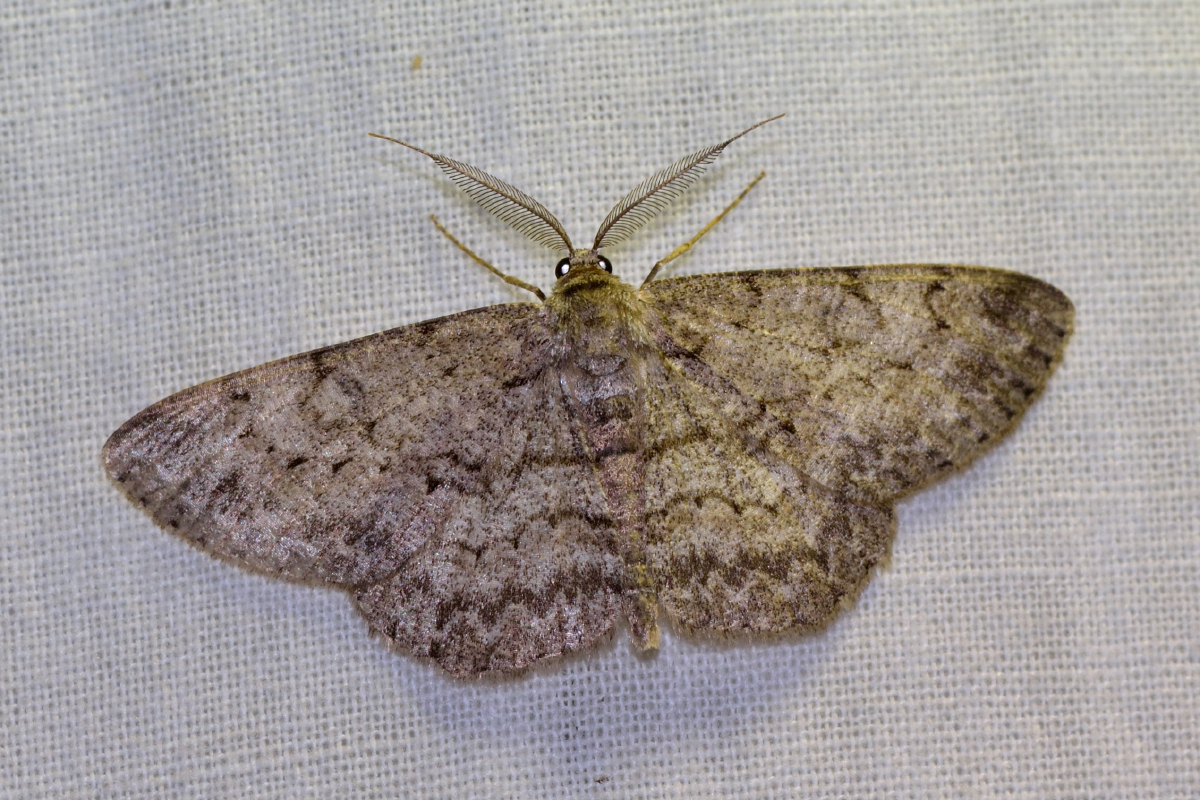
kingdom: Animalia
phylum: Arthropoda
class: Insecta
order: Lepidoptera
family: Geometridae
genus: Hypomecis
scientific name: Hypomecis punctinalis
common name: Pale oak beauty
